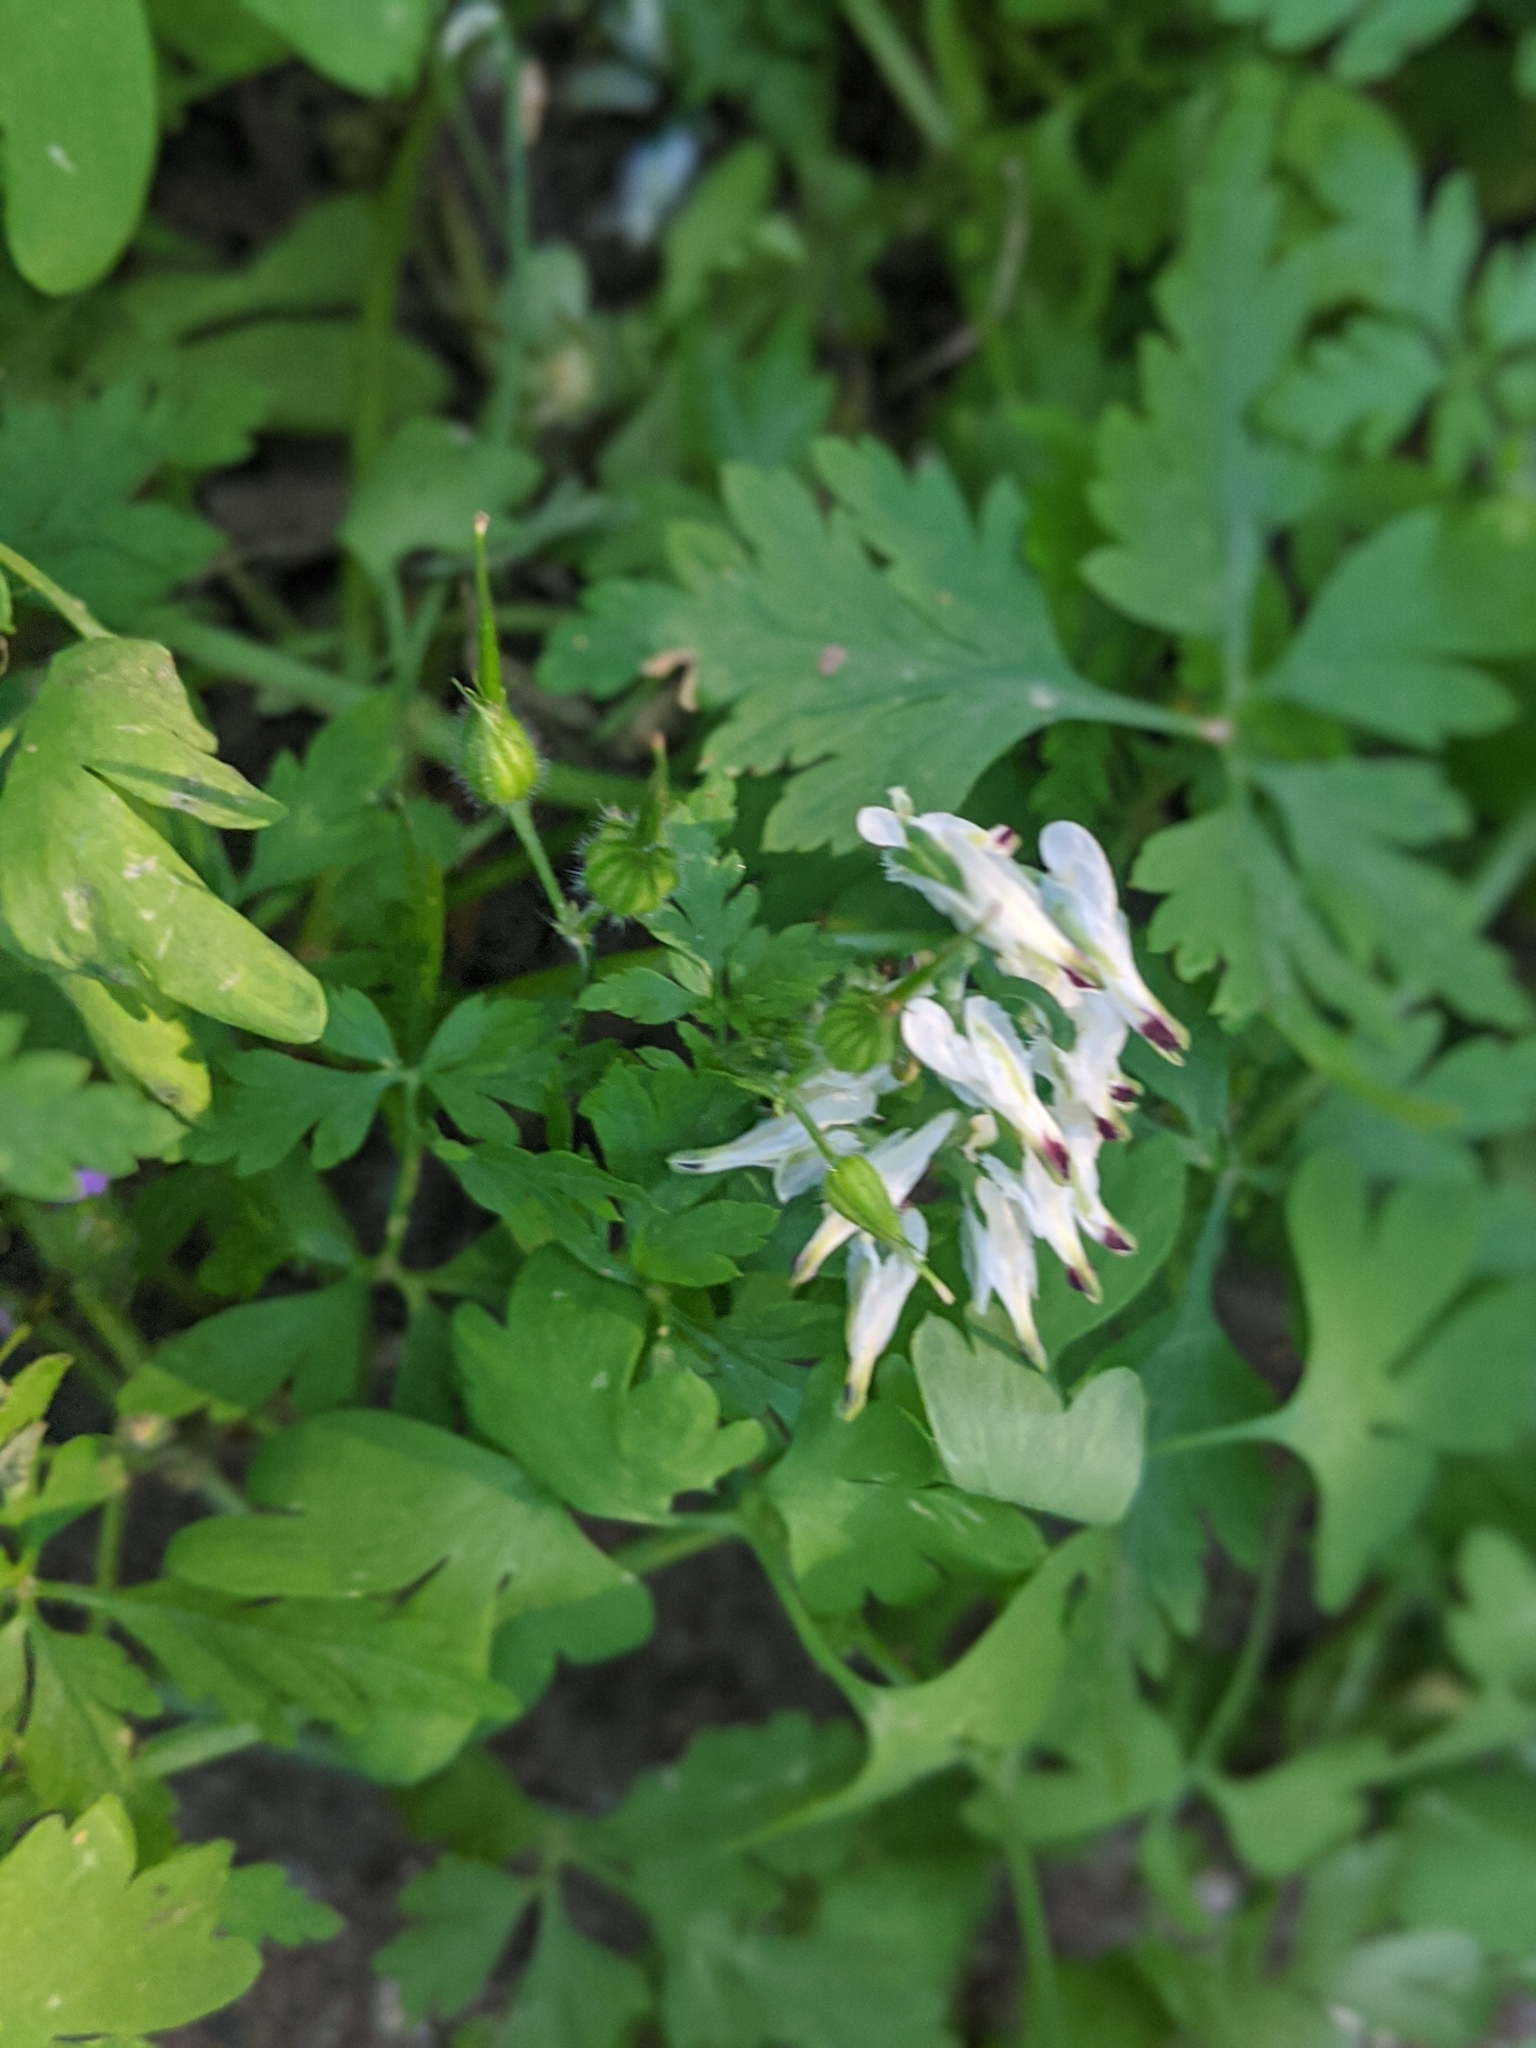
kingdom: Plantae
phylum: Tracheophyta
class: Magnoliopsida
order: Ranunculales
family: Papaveraceae
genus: Fumaria
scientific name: Fumaria capreolata
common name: White ramping-fumitory
